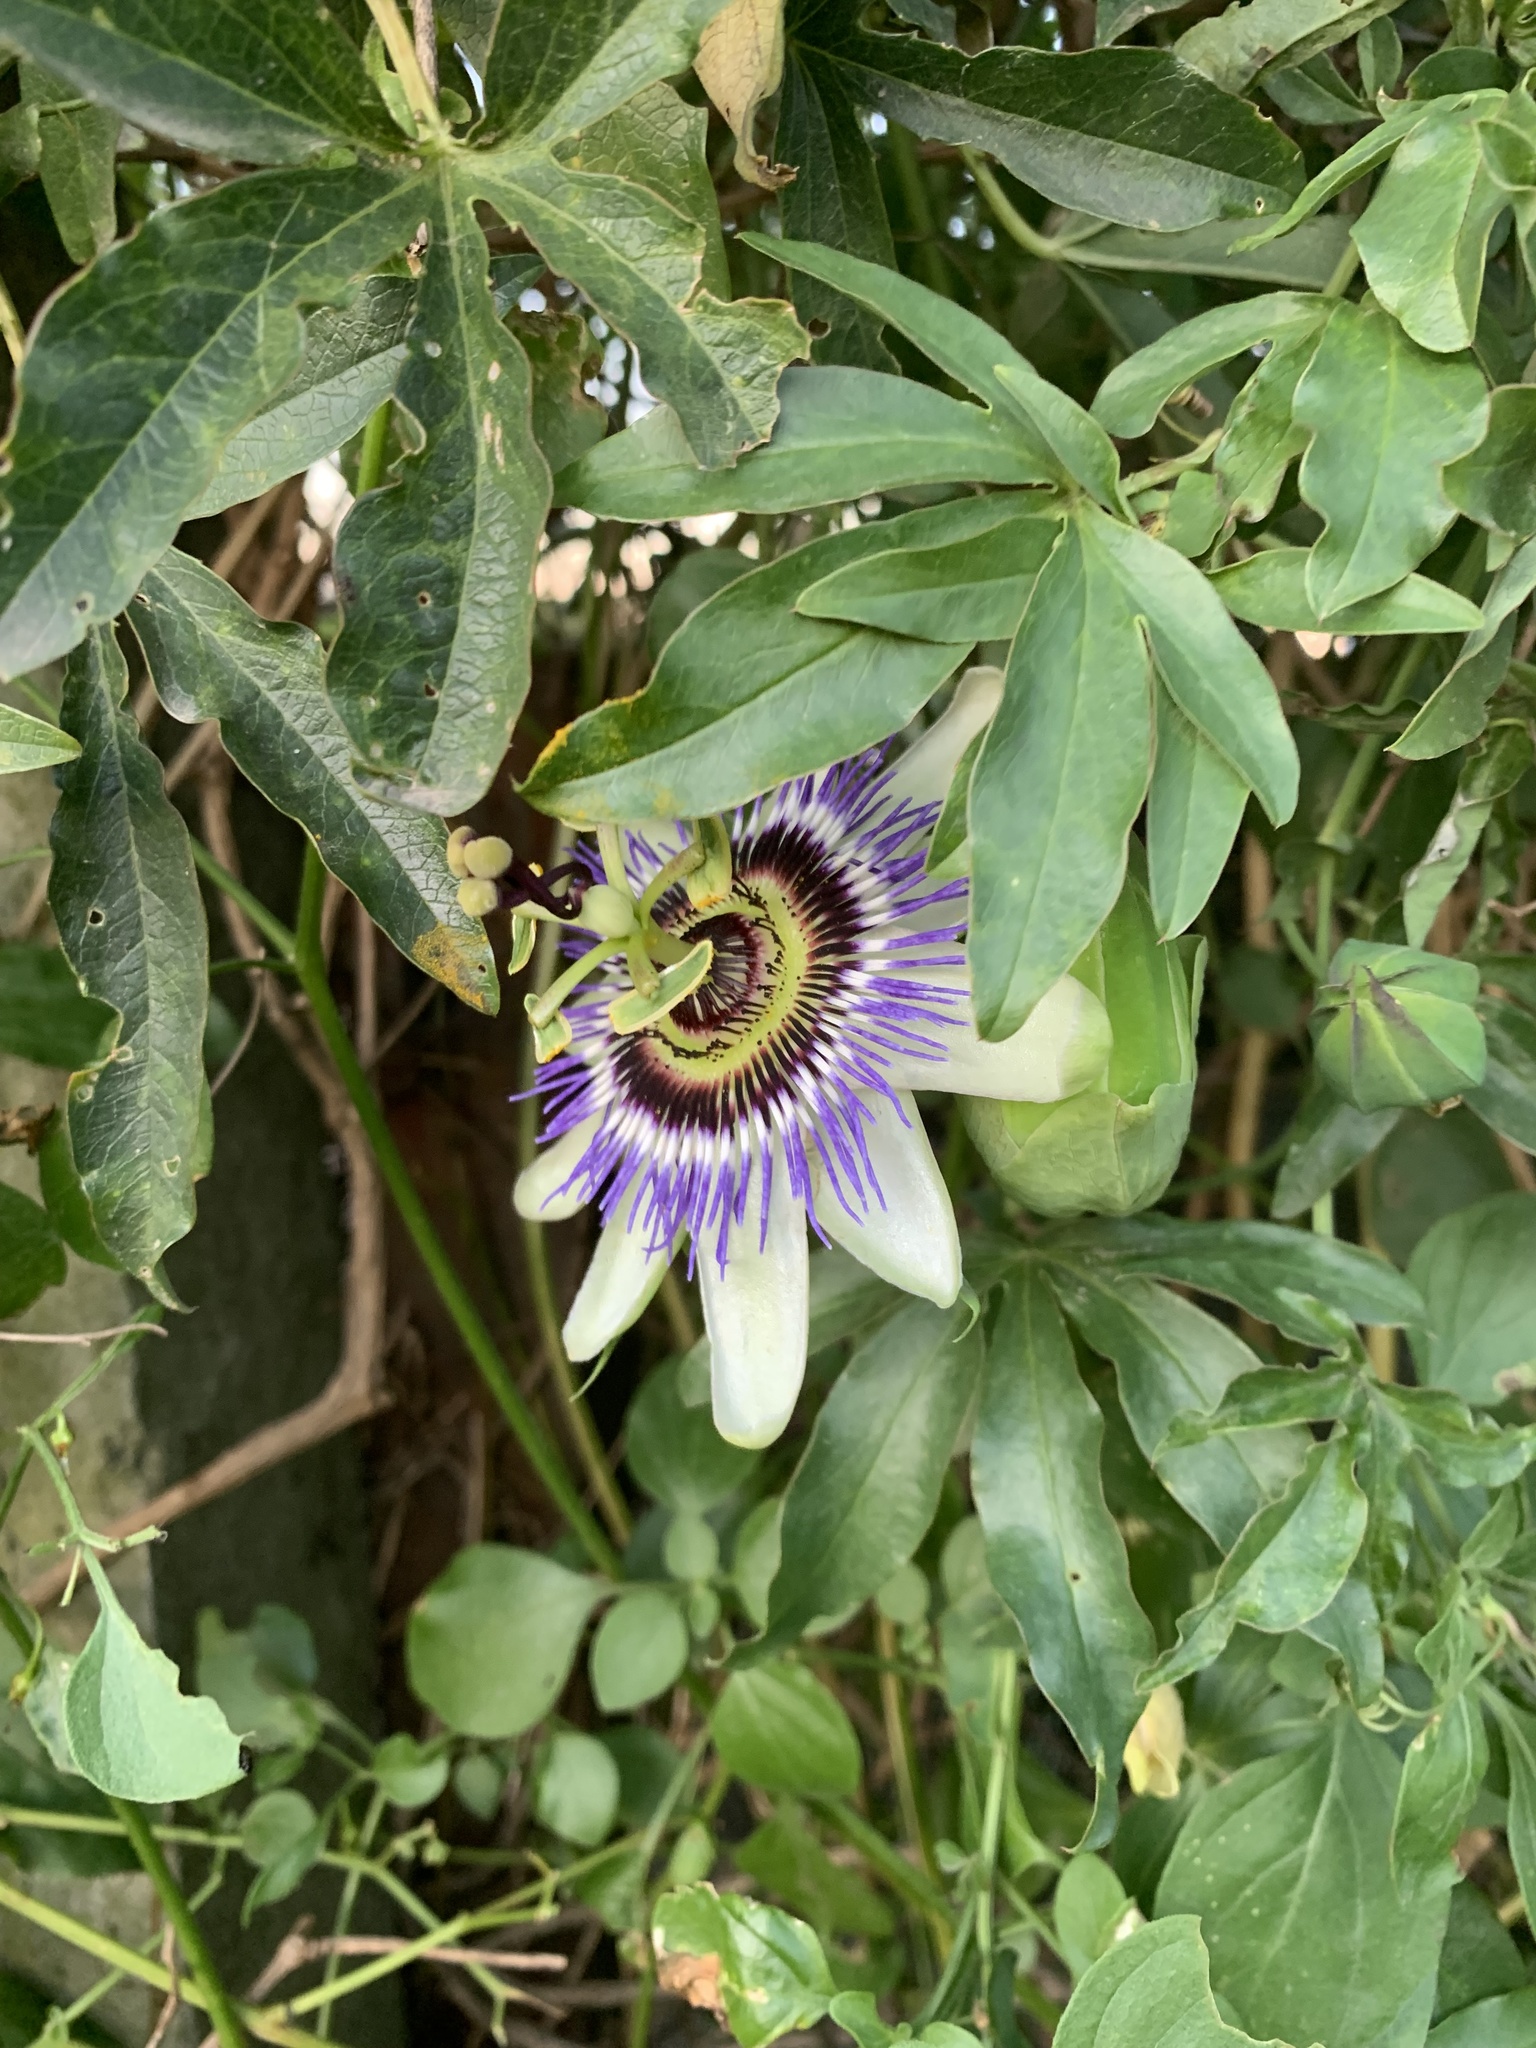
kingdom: Plantae
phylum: Tracheophyta
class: Magnoliopsida
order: Malpighiales
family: Passifloraceae
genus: Passiflora
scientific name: Passiflora caerulea
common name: Blue passionflower
